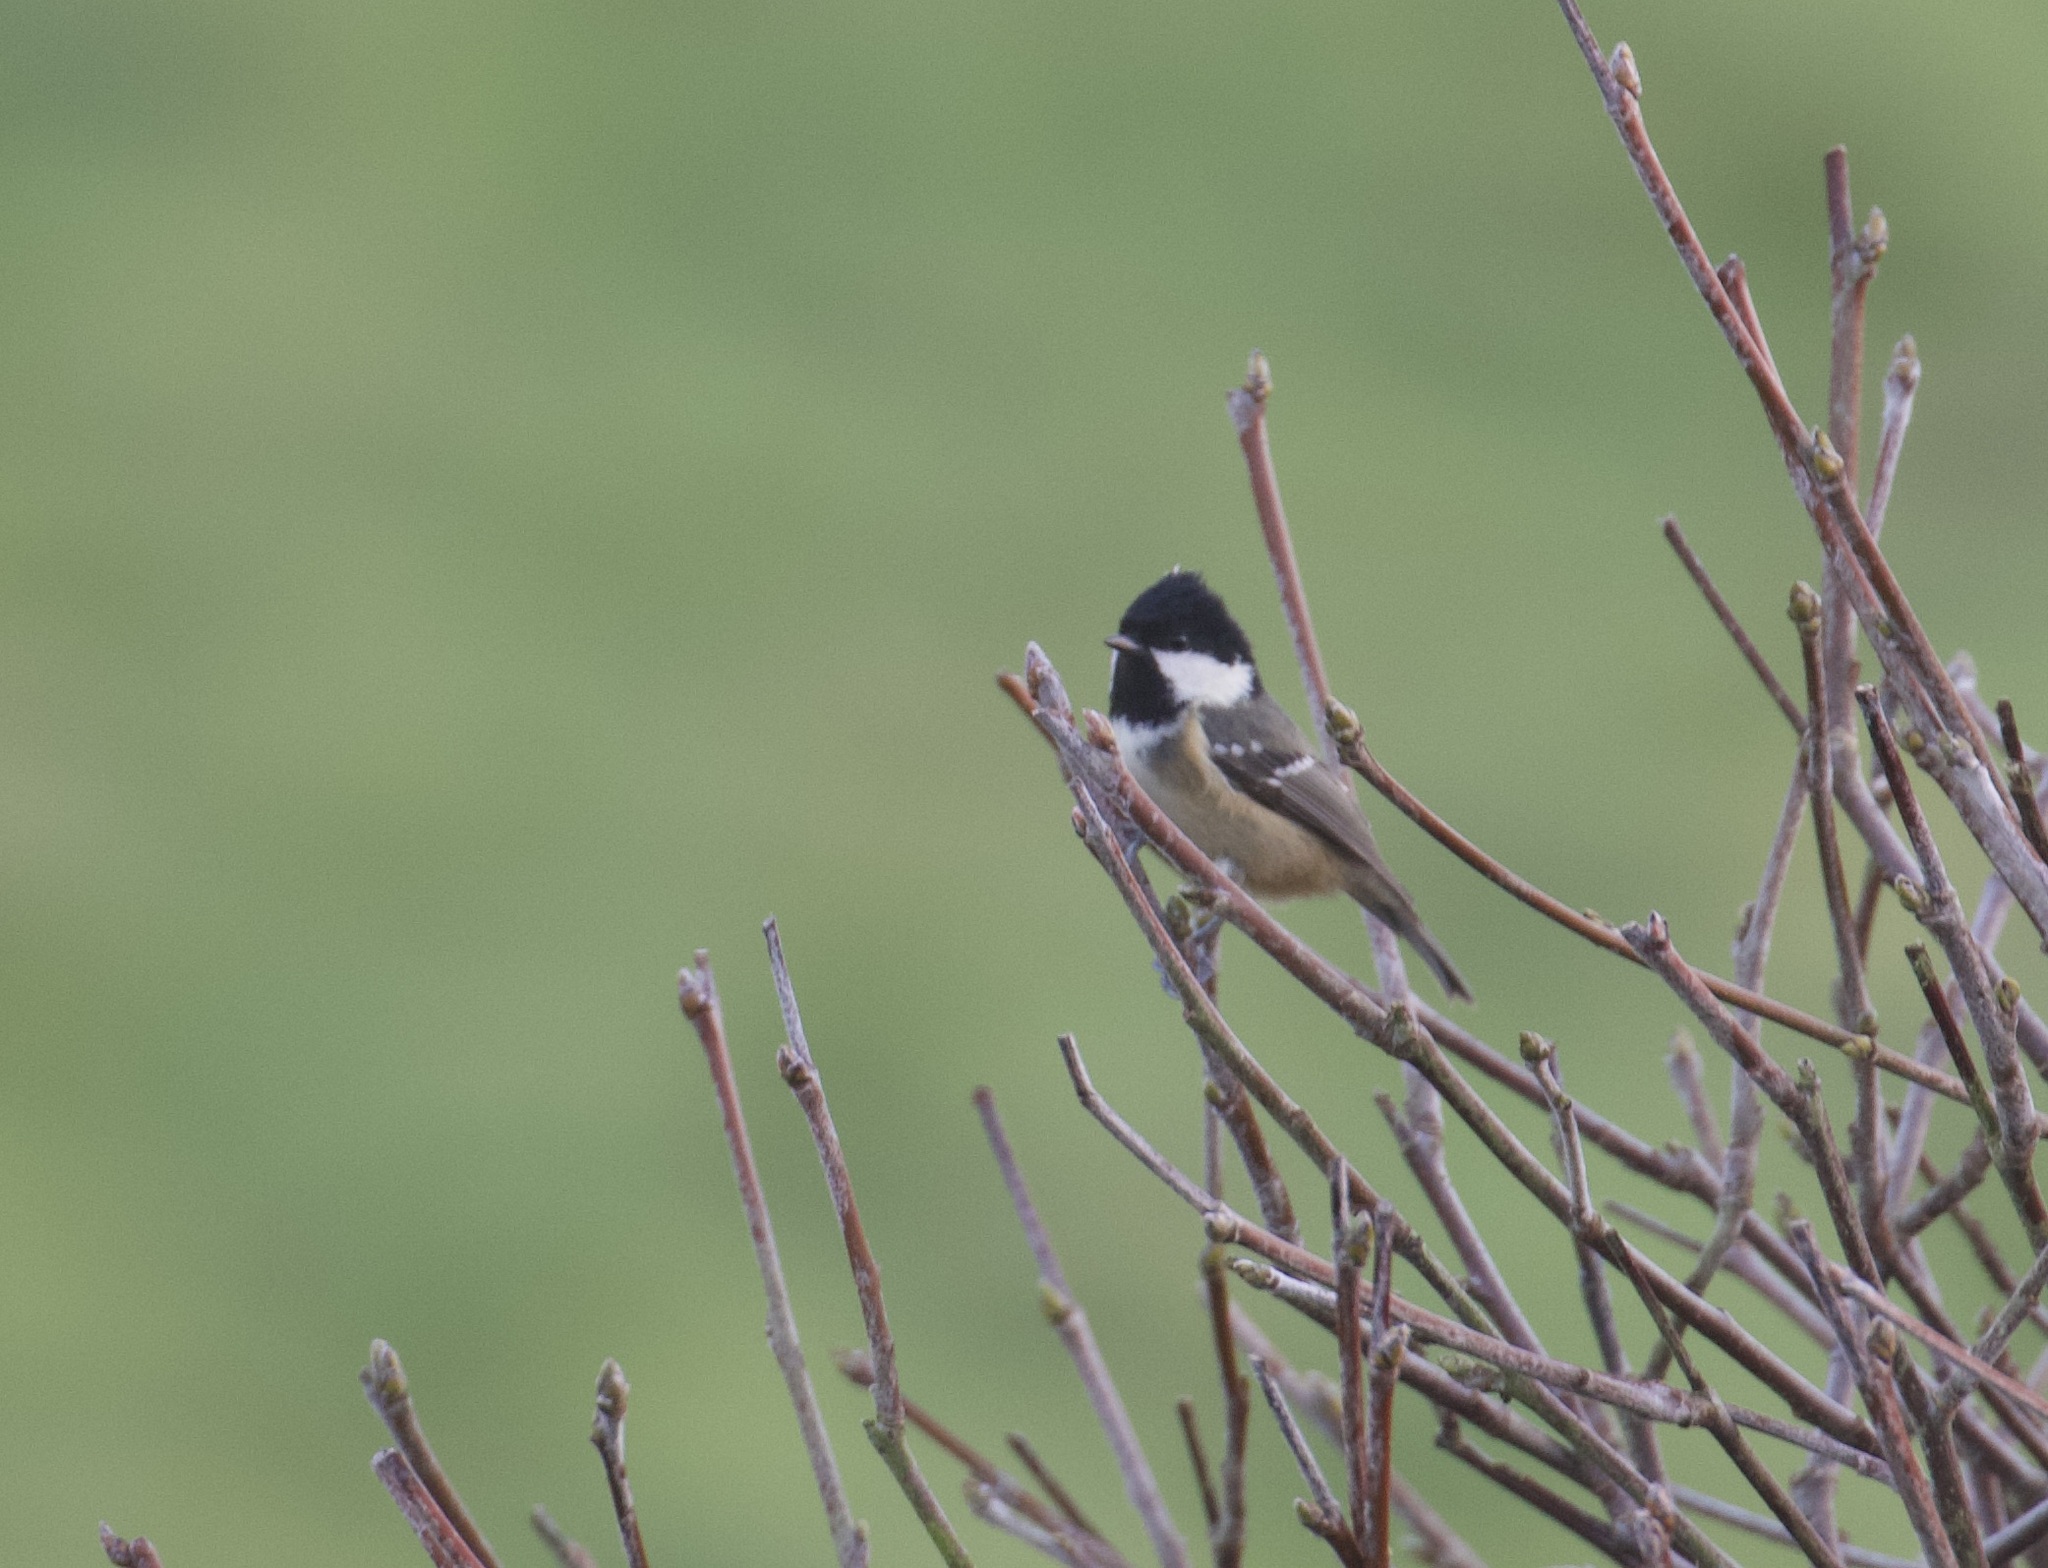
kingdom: Animalia
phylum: Chordata
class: Aves
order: Passeriformes
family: Paridae
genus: Periparus
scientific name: Periparus ater
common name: Coal tit
